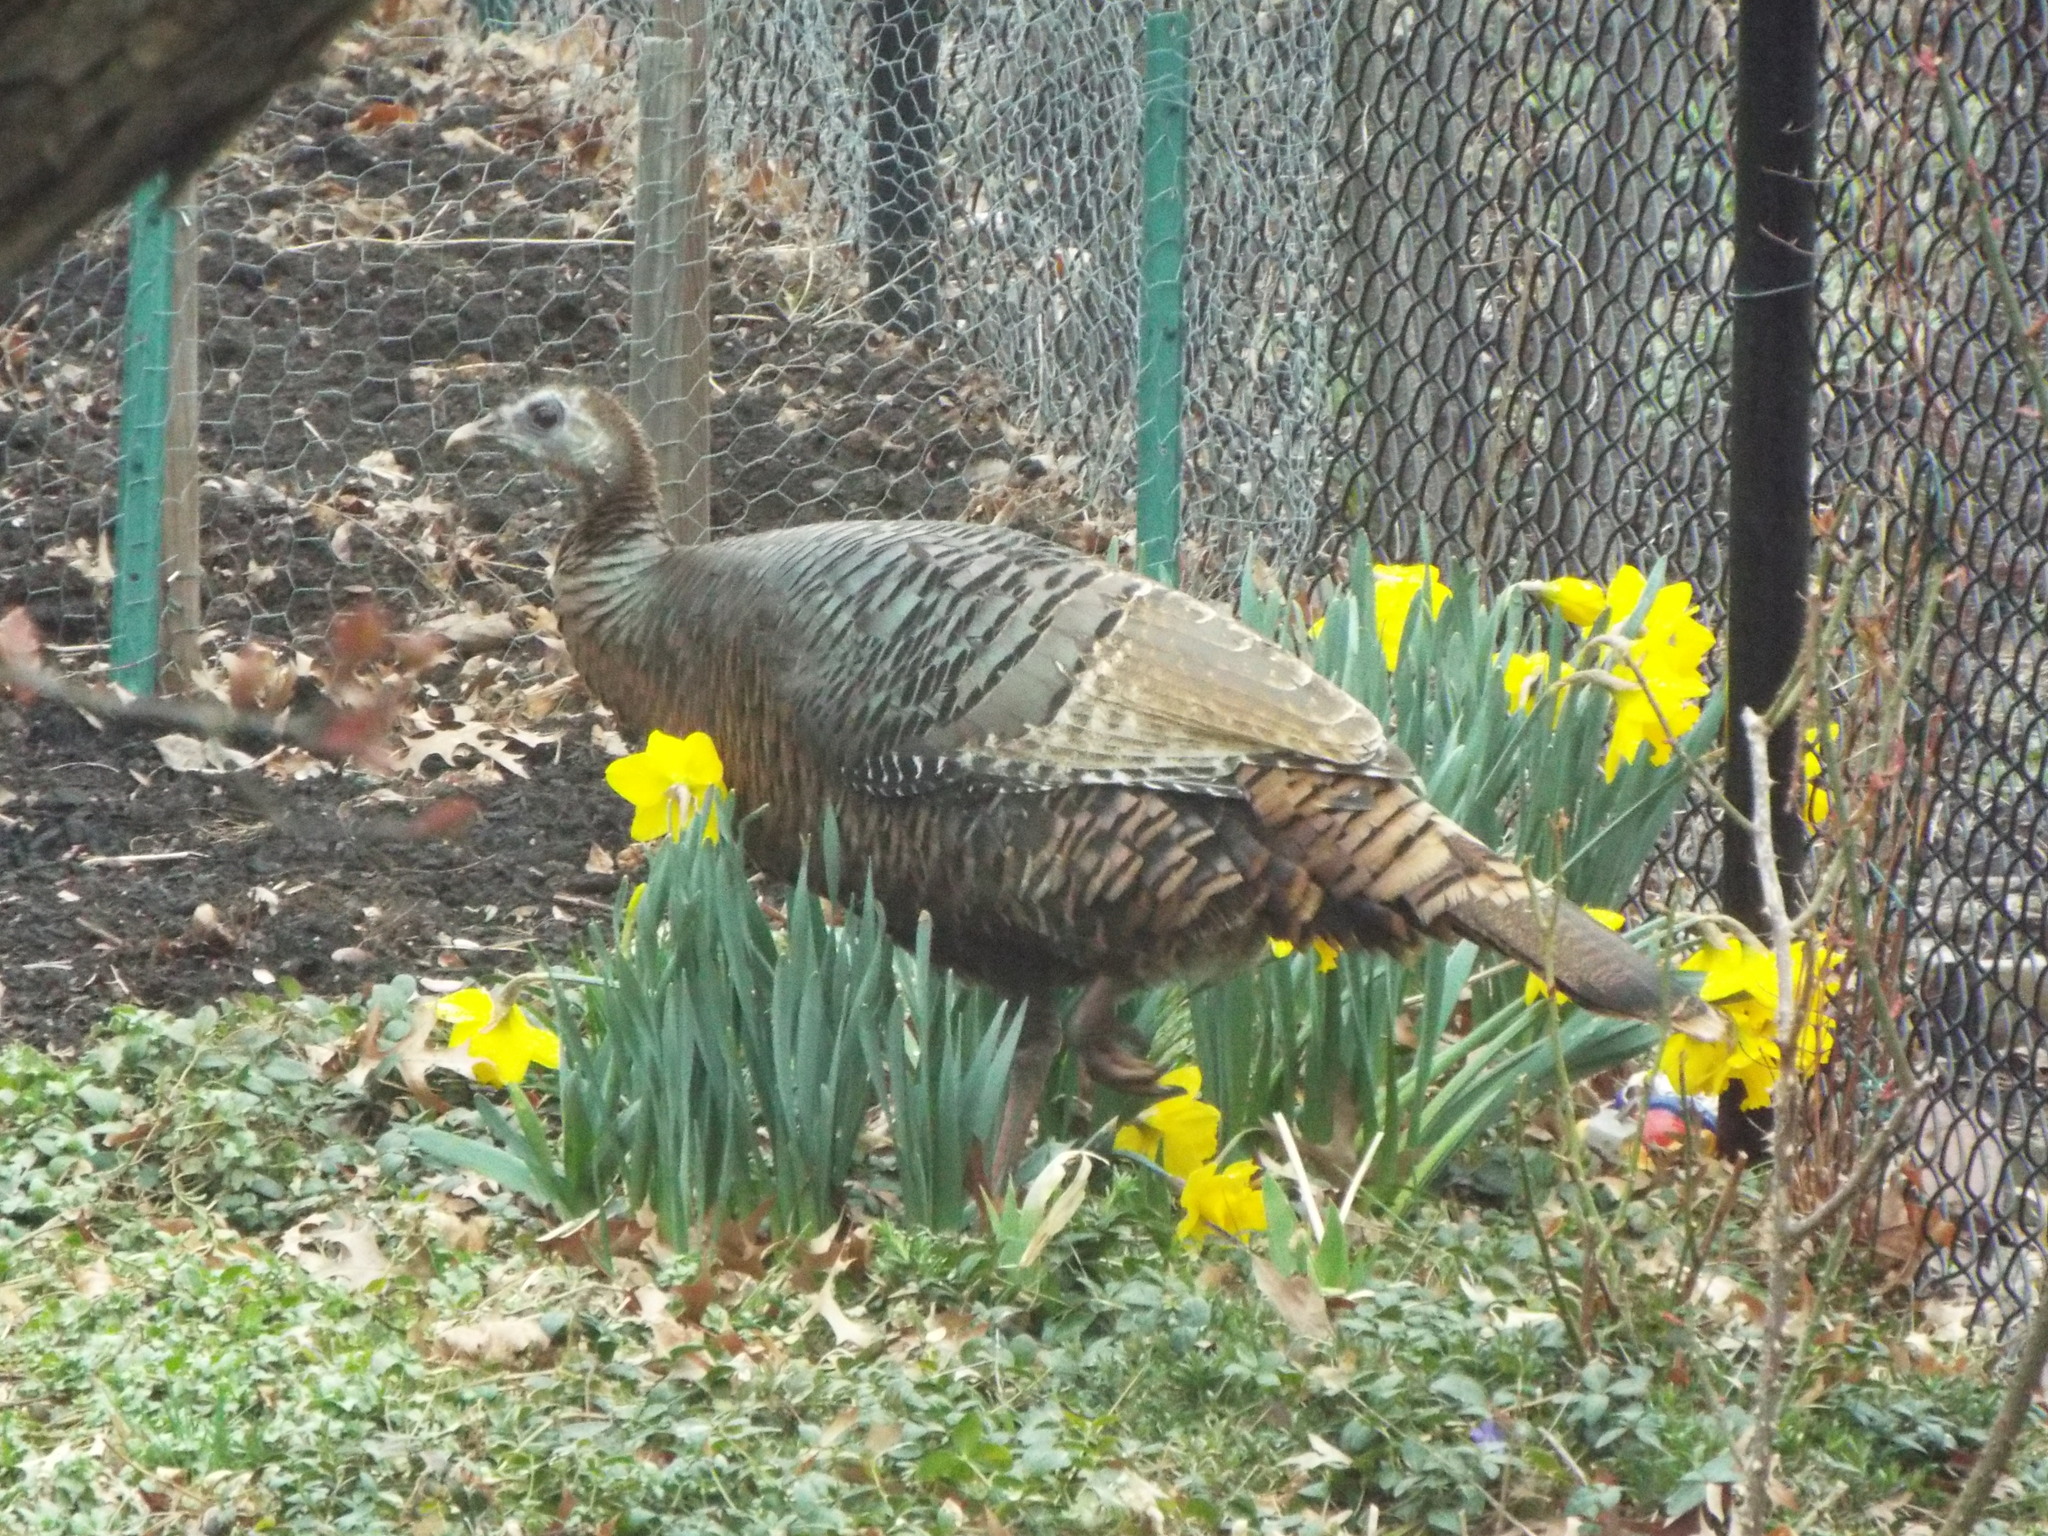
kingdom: Animalia
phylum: Chordata
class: Aves
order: Galliformes
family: Phasianidae
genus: Meleagris
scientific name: Meleagris gallopavo
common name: Wild turkey
